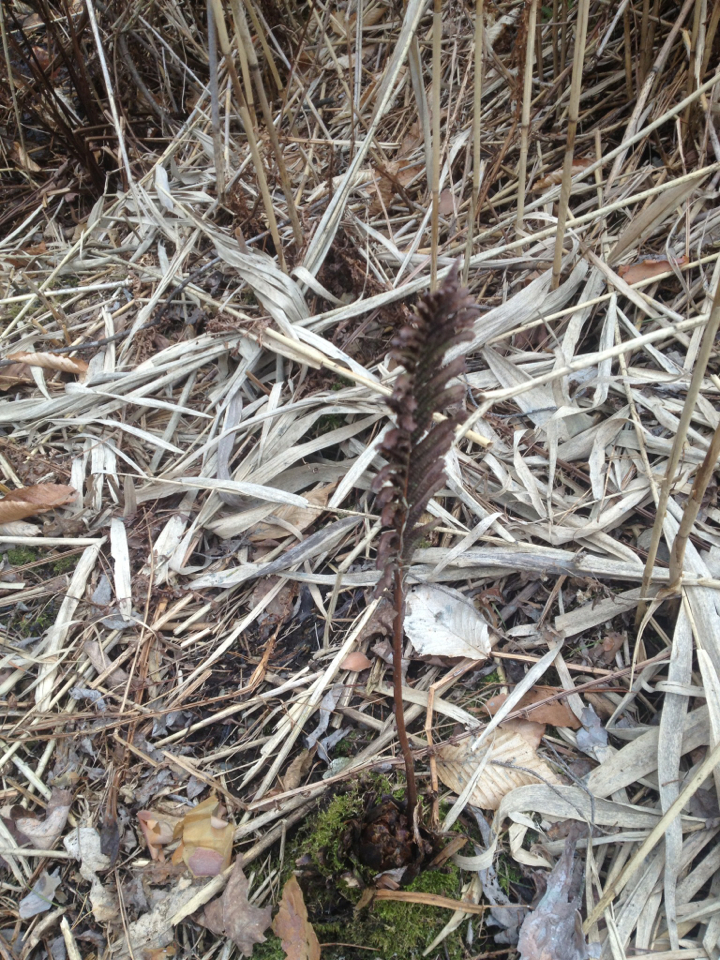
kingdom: Plantae
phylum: Tracheophyta
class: Polypodiopsida
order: Polypodiales
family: Onocleaceae
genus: Matteuccia
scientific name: Matteuccia struthiopteris
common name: Ostrich fern
